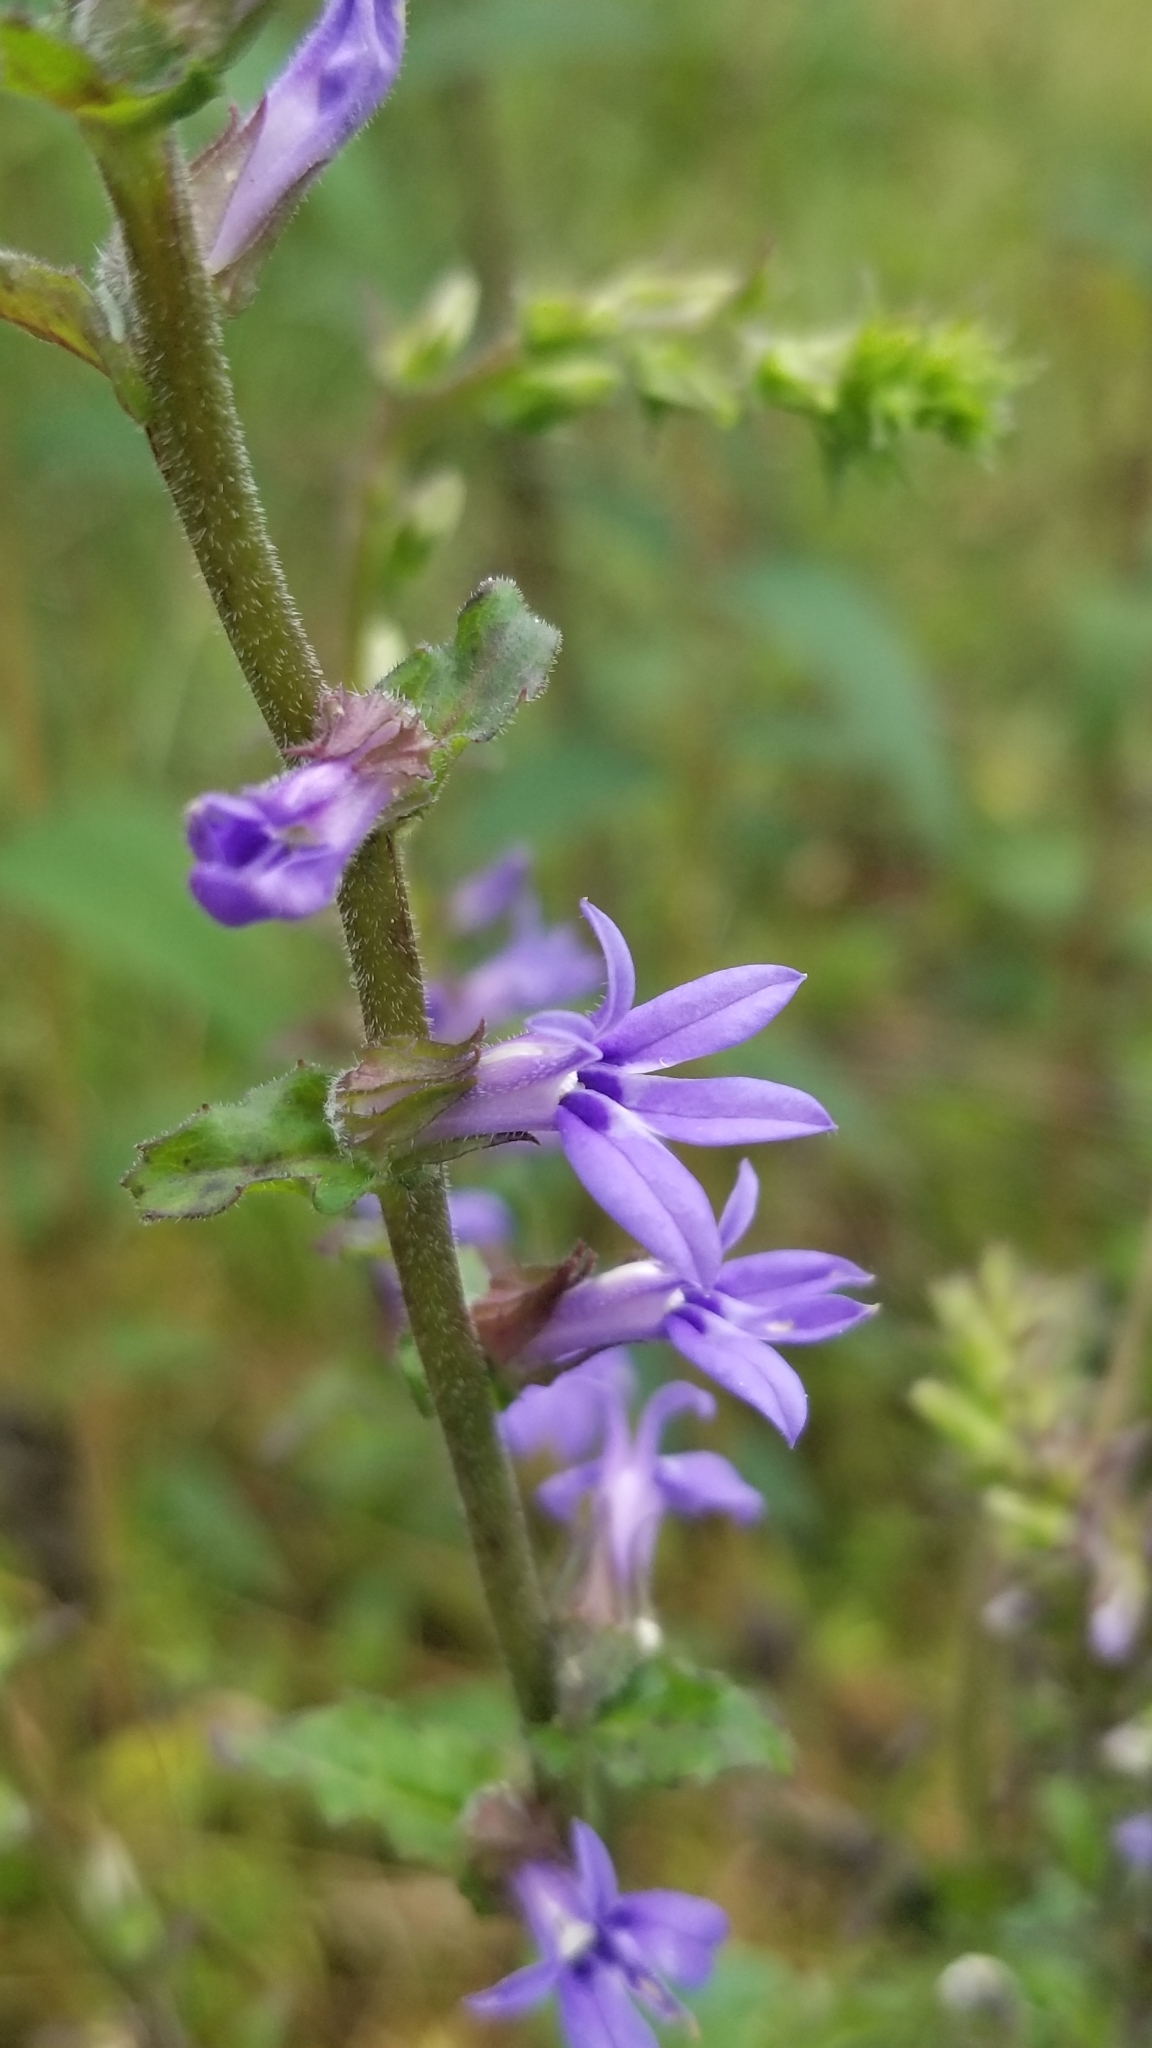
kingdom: Plantae
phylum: Tracheophyta
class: Magnoliopsida
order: Asterales
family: Campanulaceae
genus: Lobelia
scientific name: Lobelia puberula
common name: Purple dewdrop
